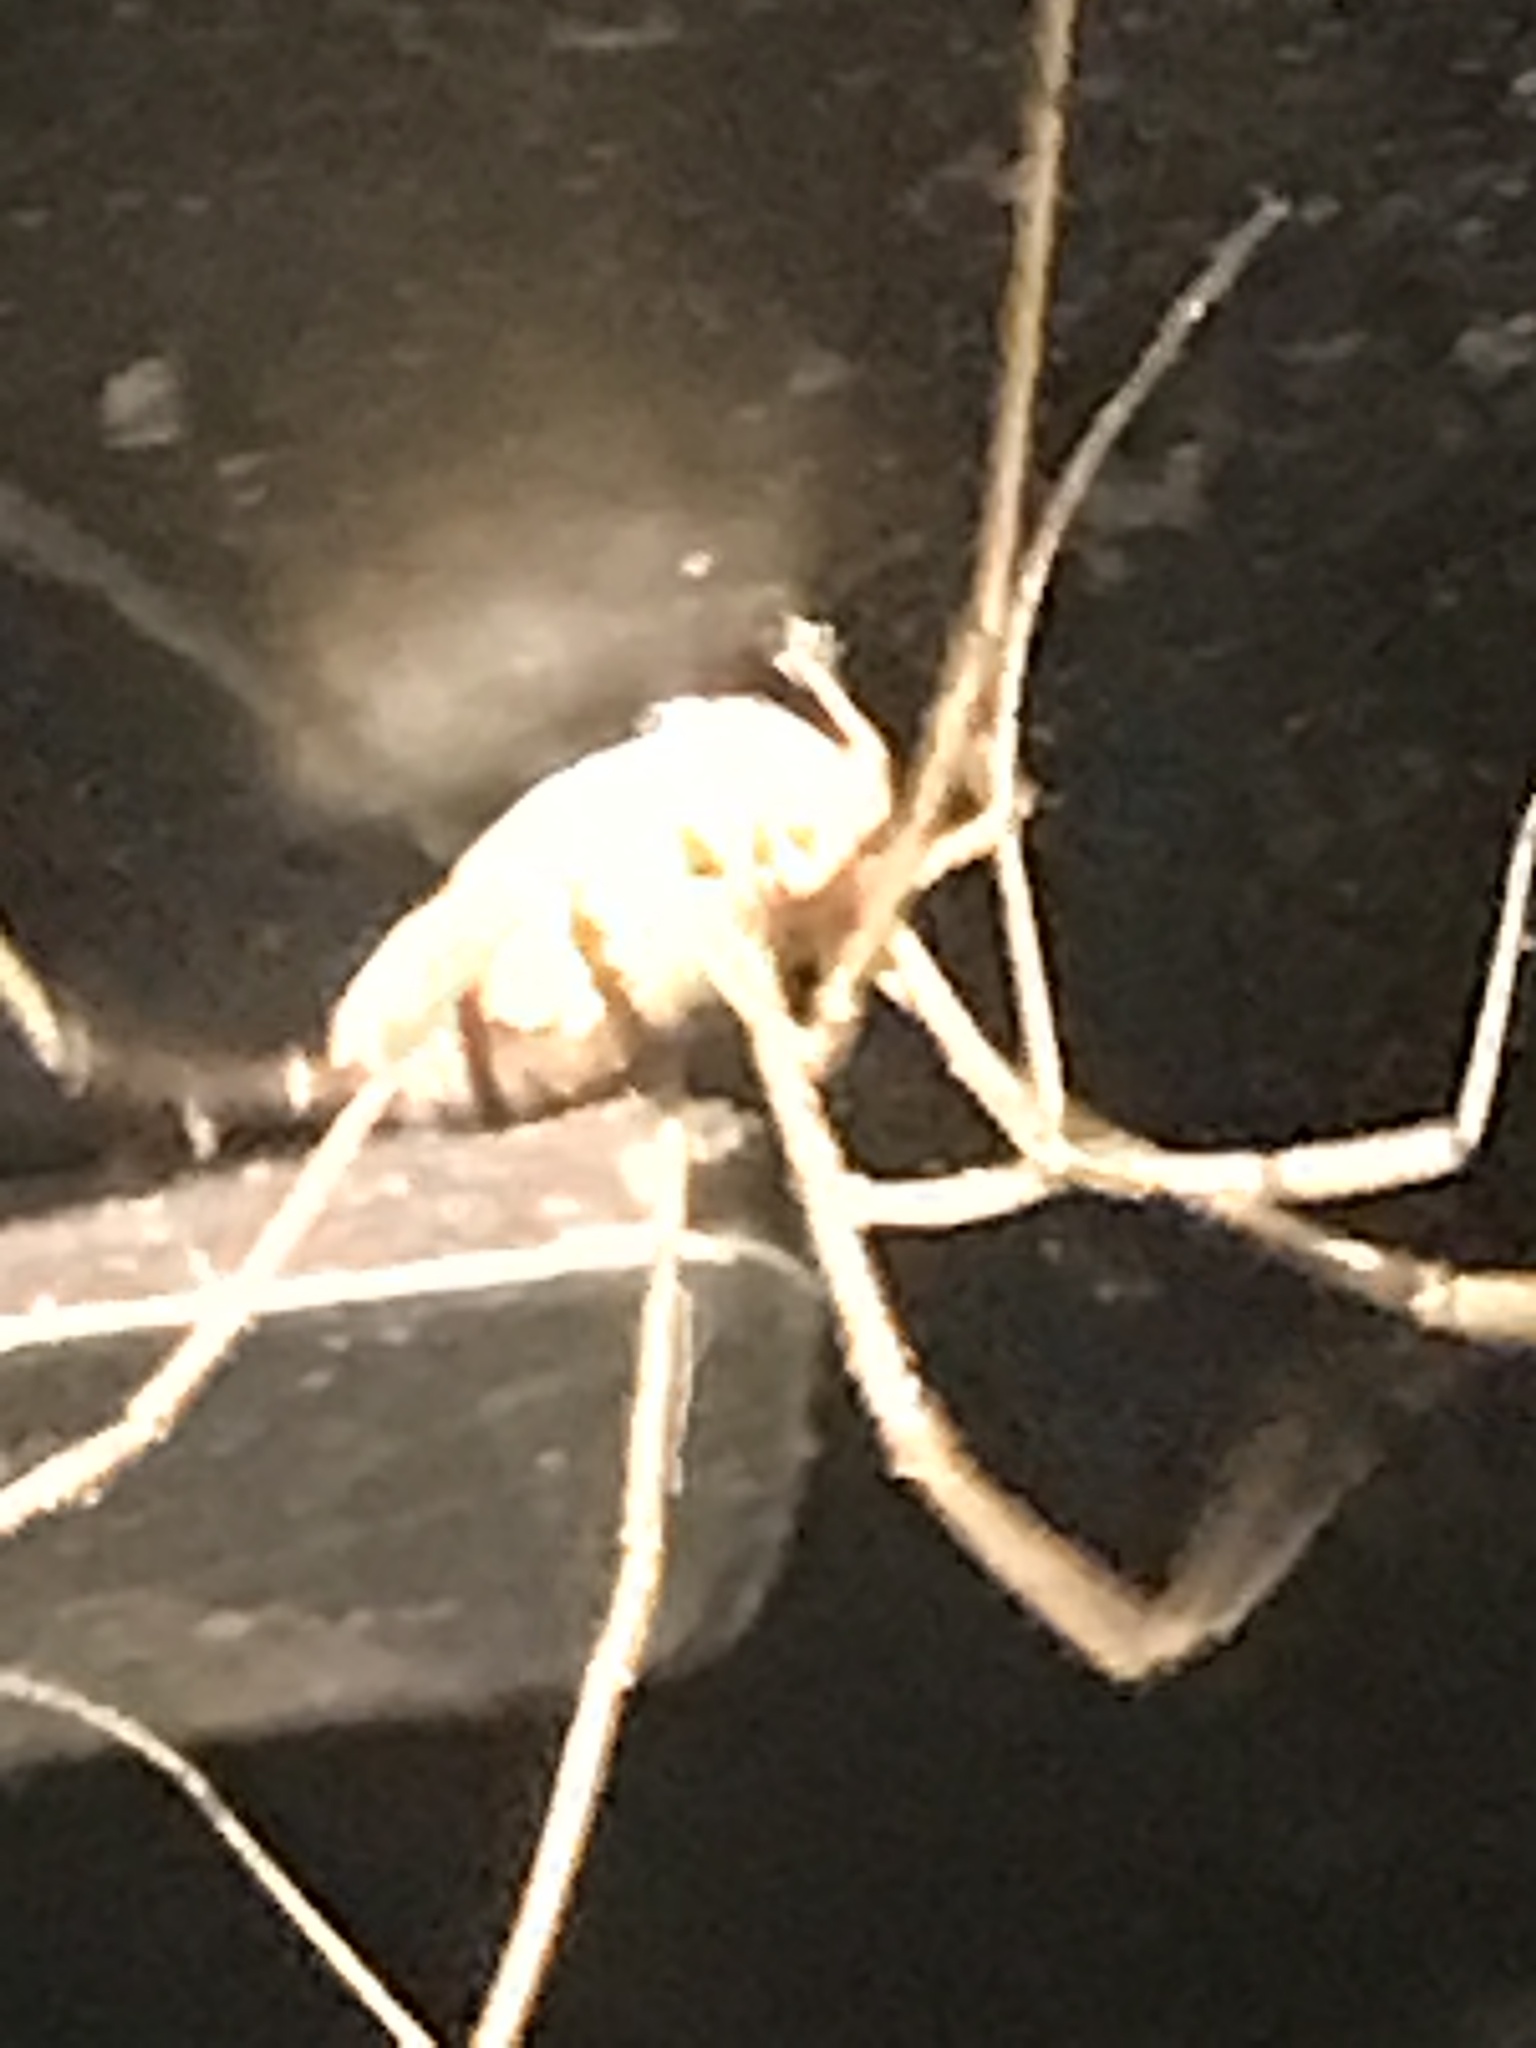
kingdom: Animalia
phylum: Arthropoda
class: Arachnida
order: Opiliones
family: Phalangiidae
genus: Phalangium
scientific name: Phalangium opilio
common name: Daddy longleg
